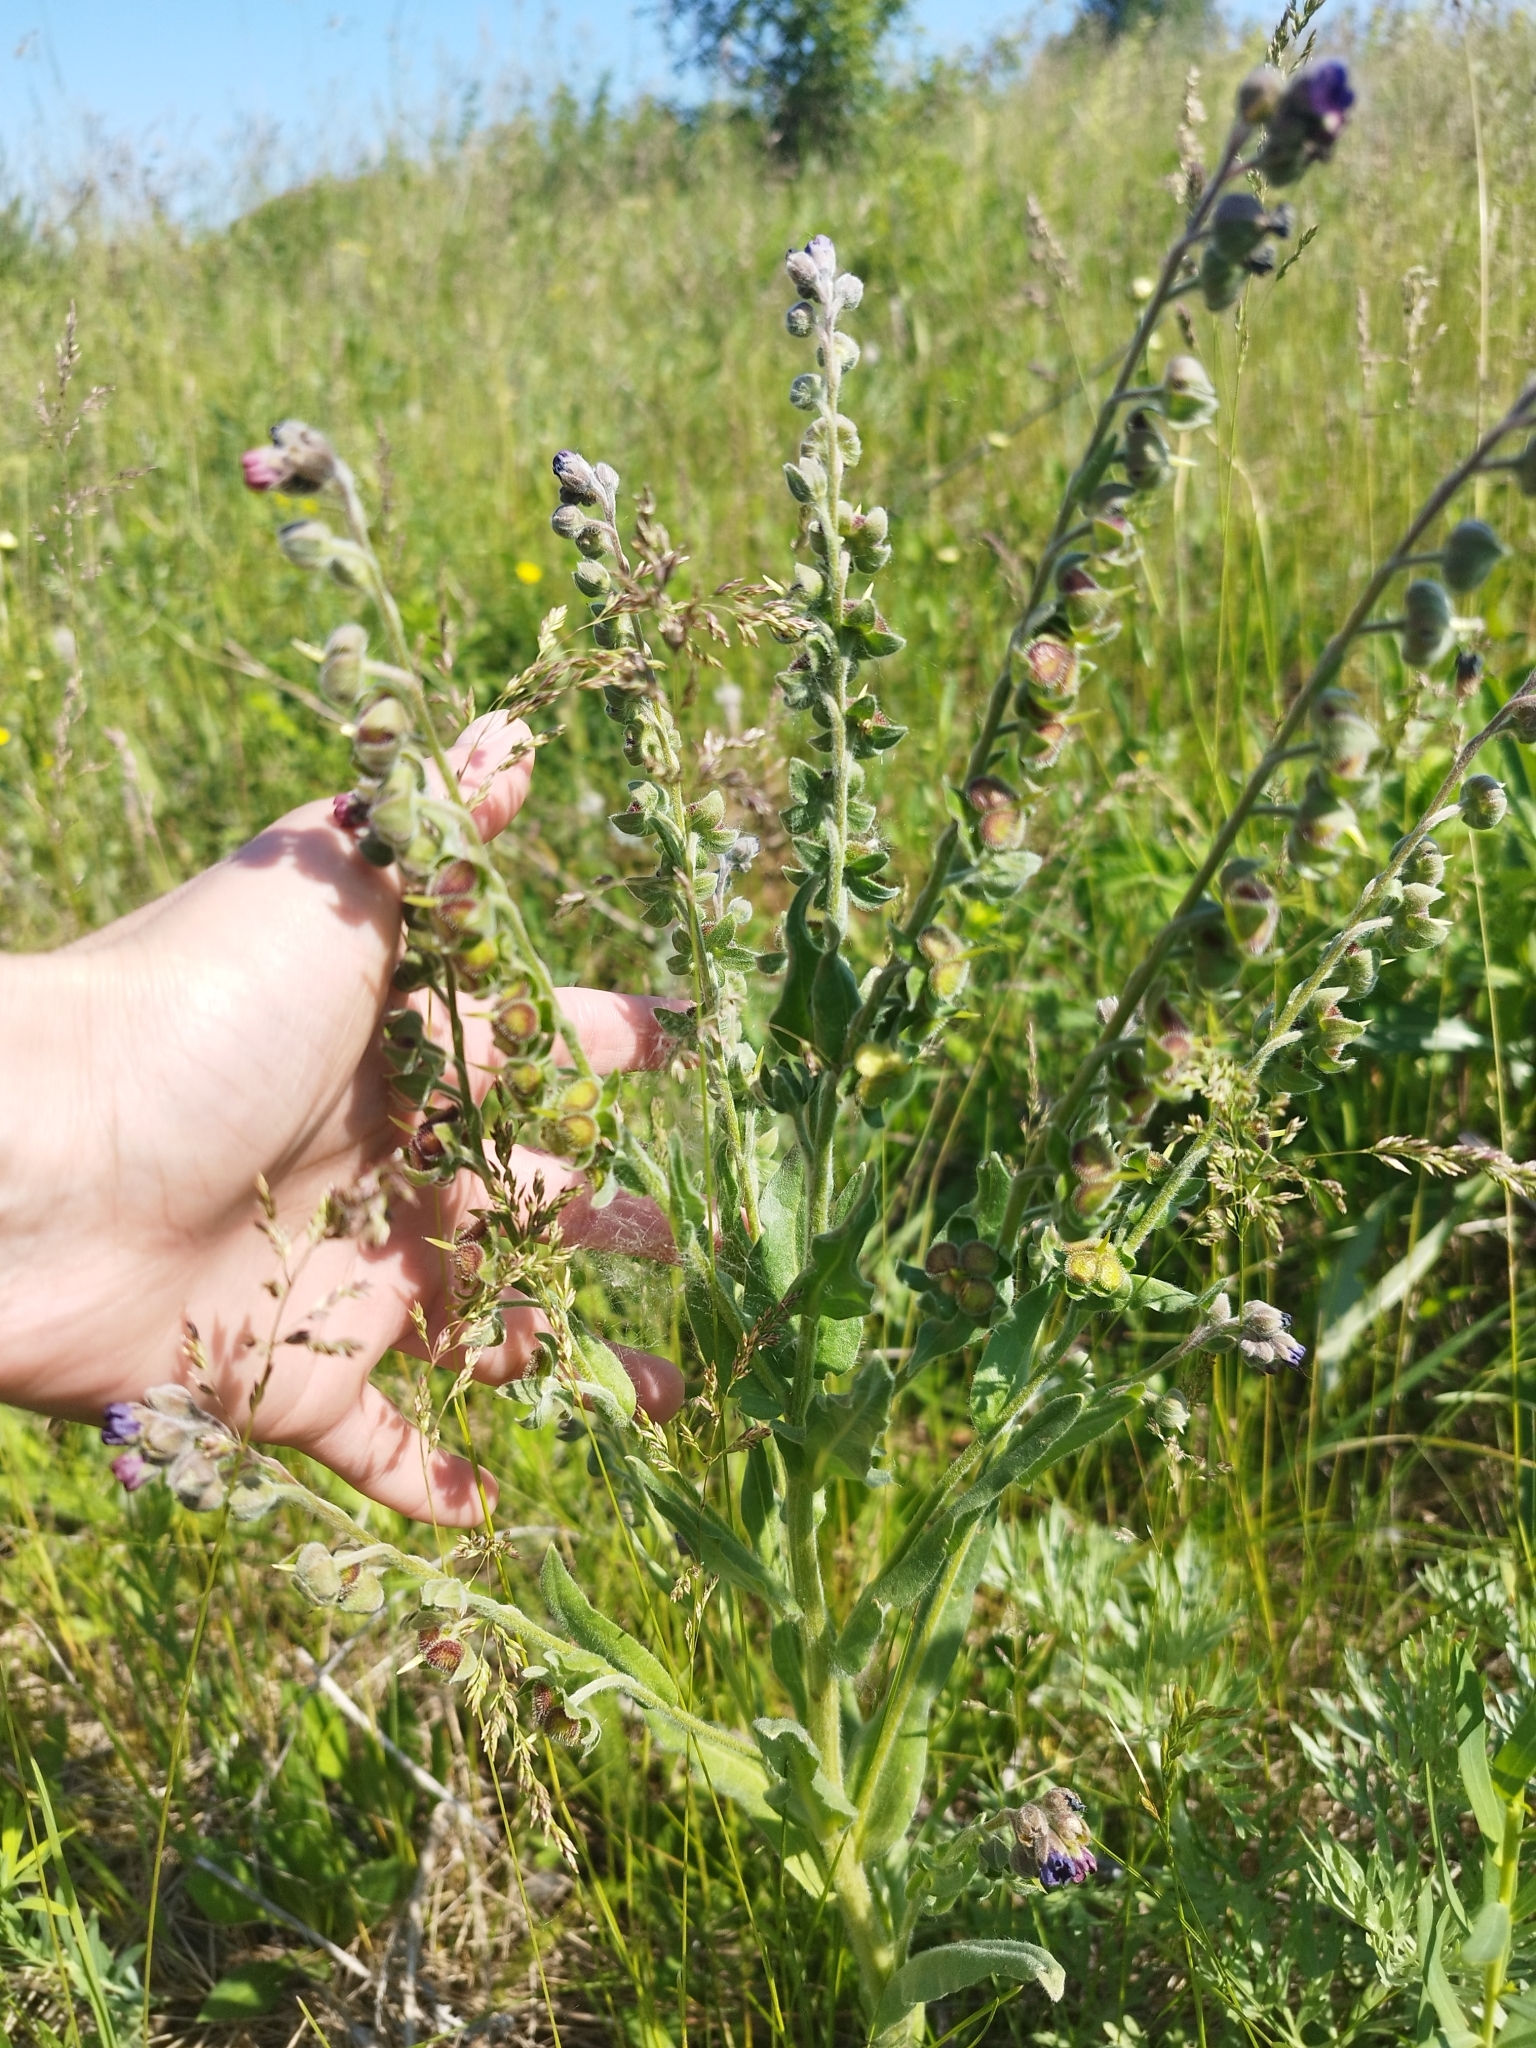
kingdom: Plantae
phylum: Tracheophyta
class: Magnoliopsida
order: Boraginales
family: Boraginaceae
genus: Cynoglossum
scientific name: Cynoglossum officinale
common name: Hound's-tongue
